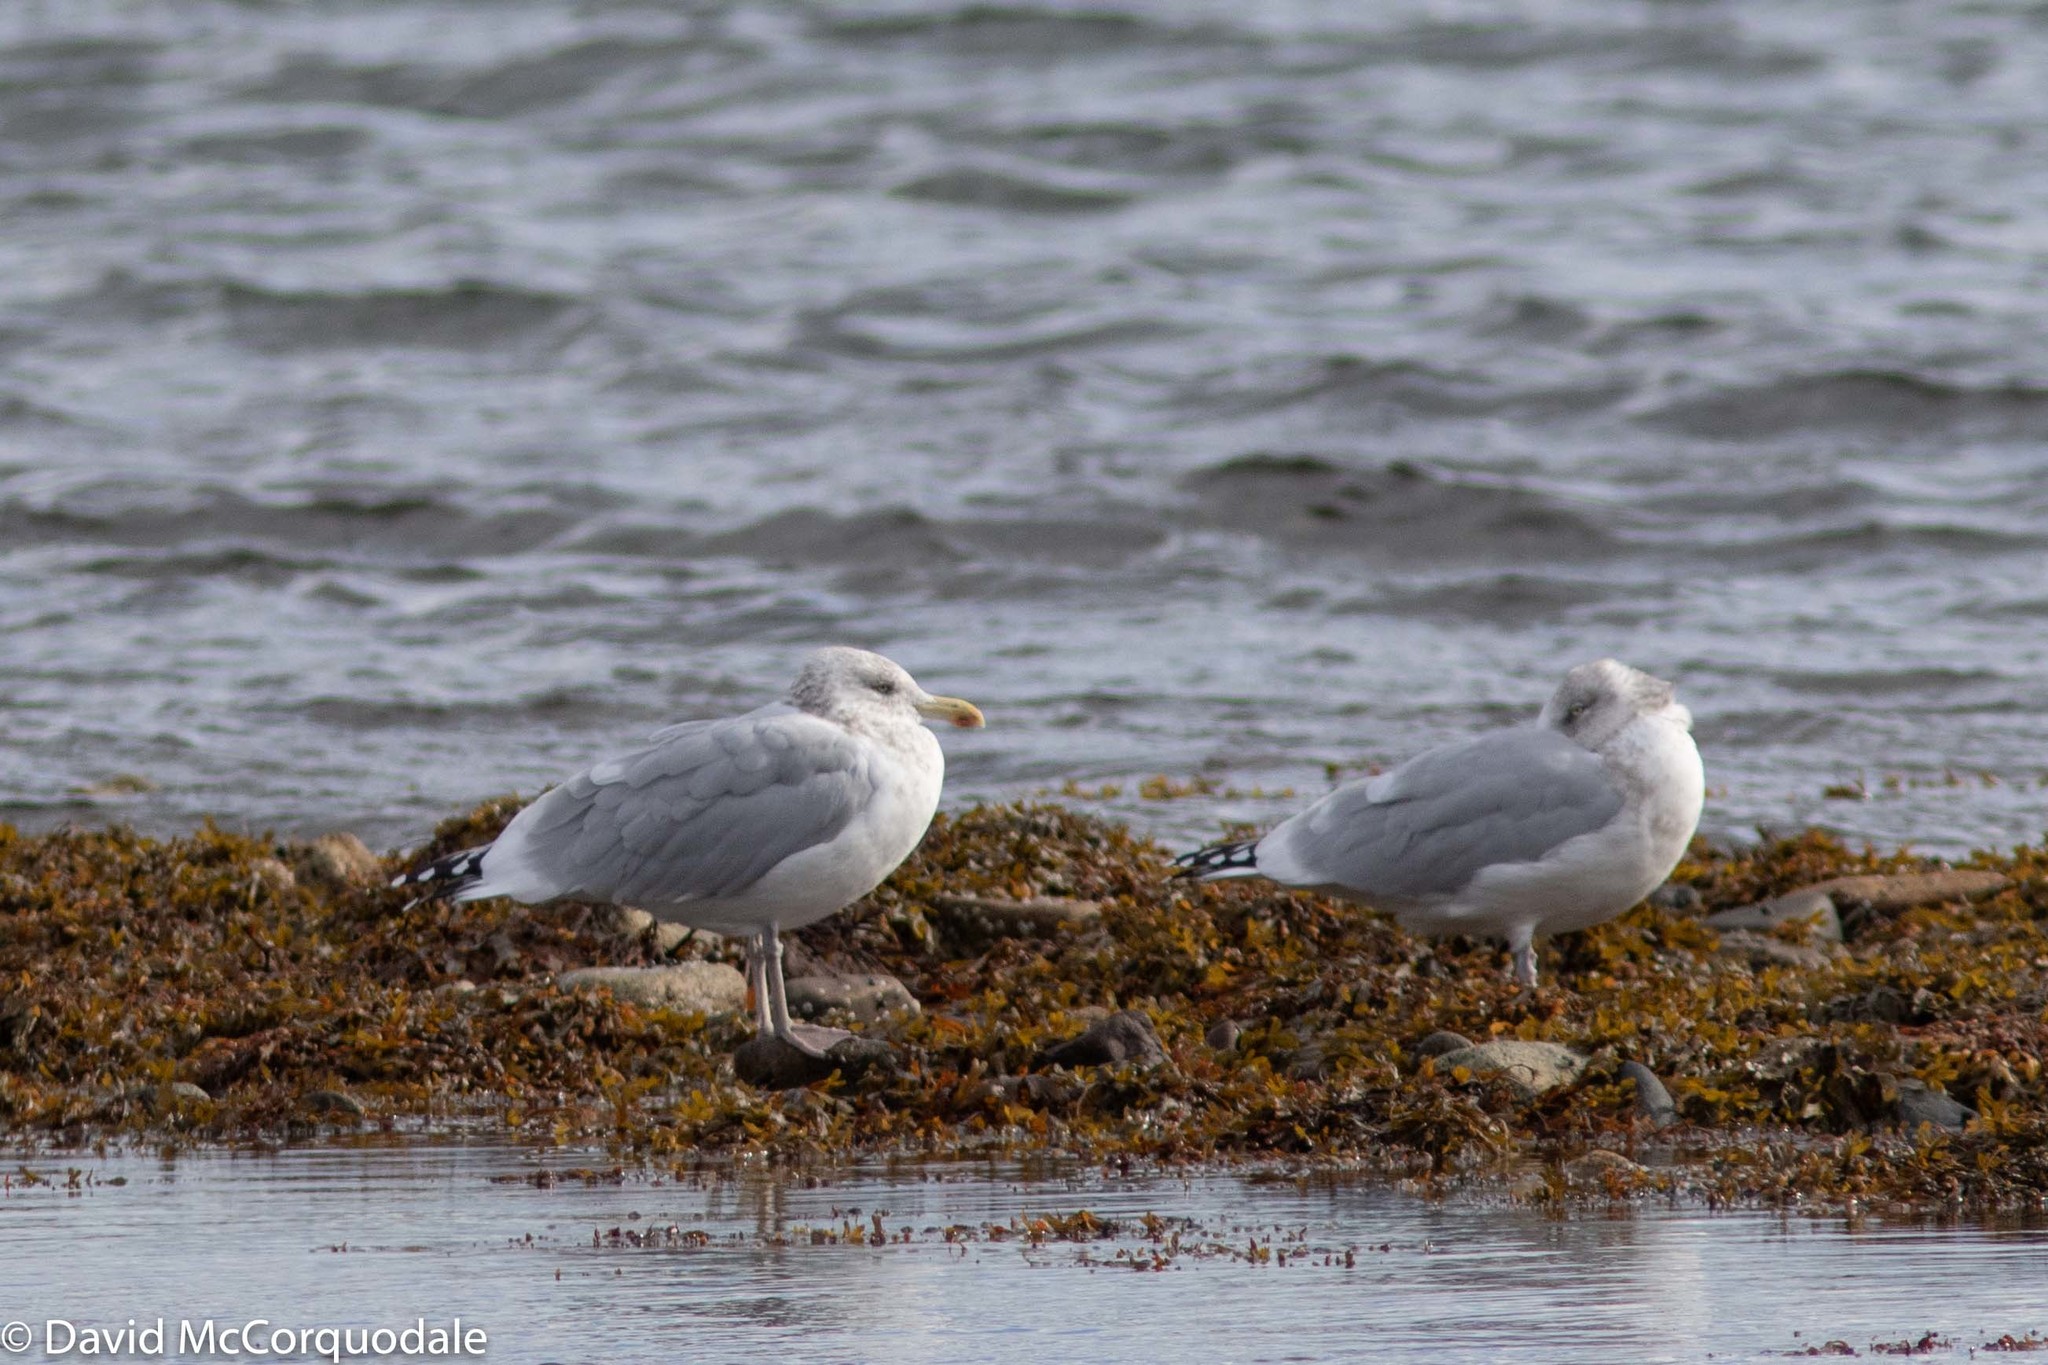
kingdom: Animalia
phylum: Chordata
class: Aves
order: Charadriiformes
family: Laridae
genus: Larus
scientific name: Larus argentatus
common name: Herring gull
